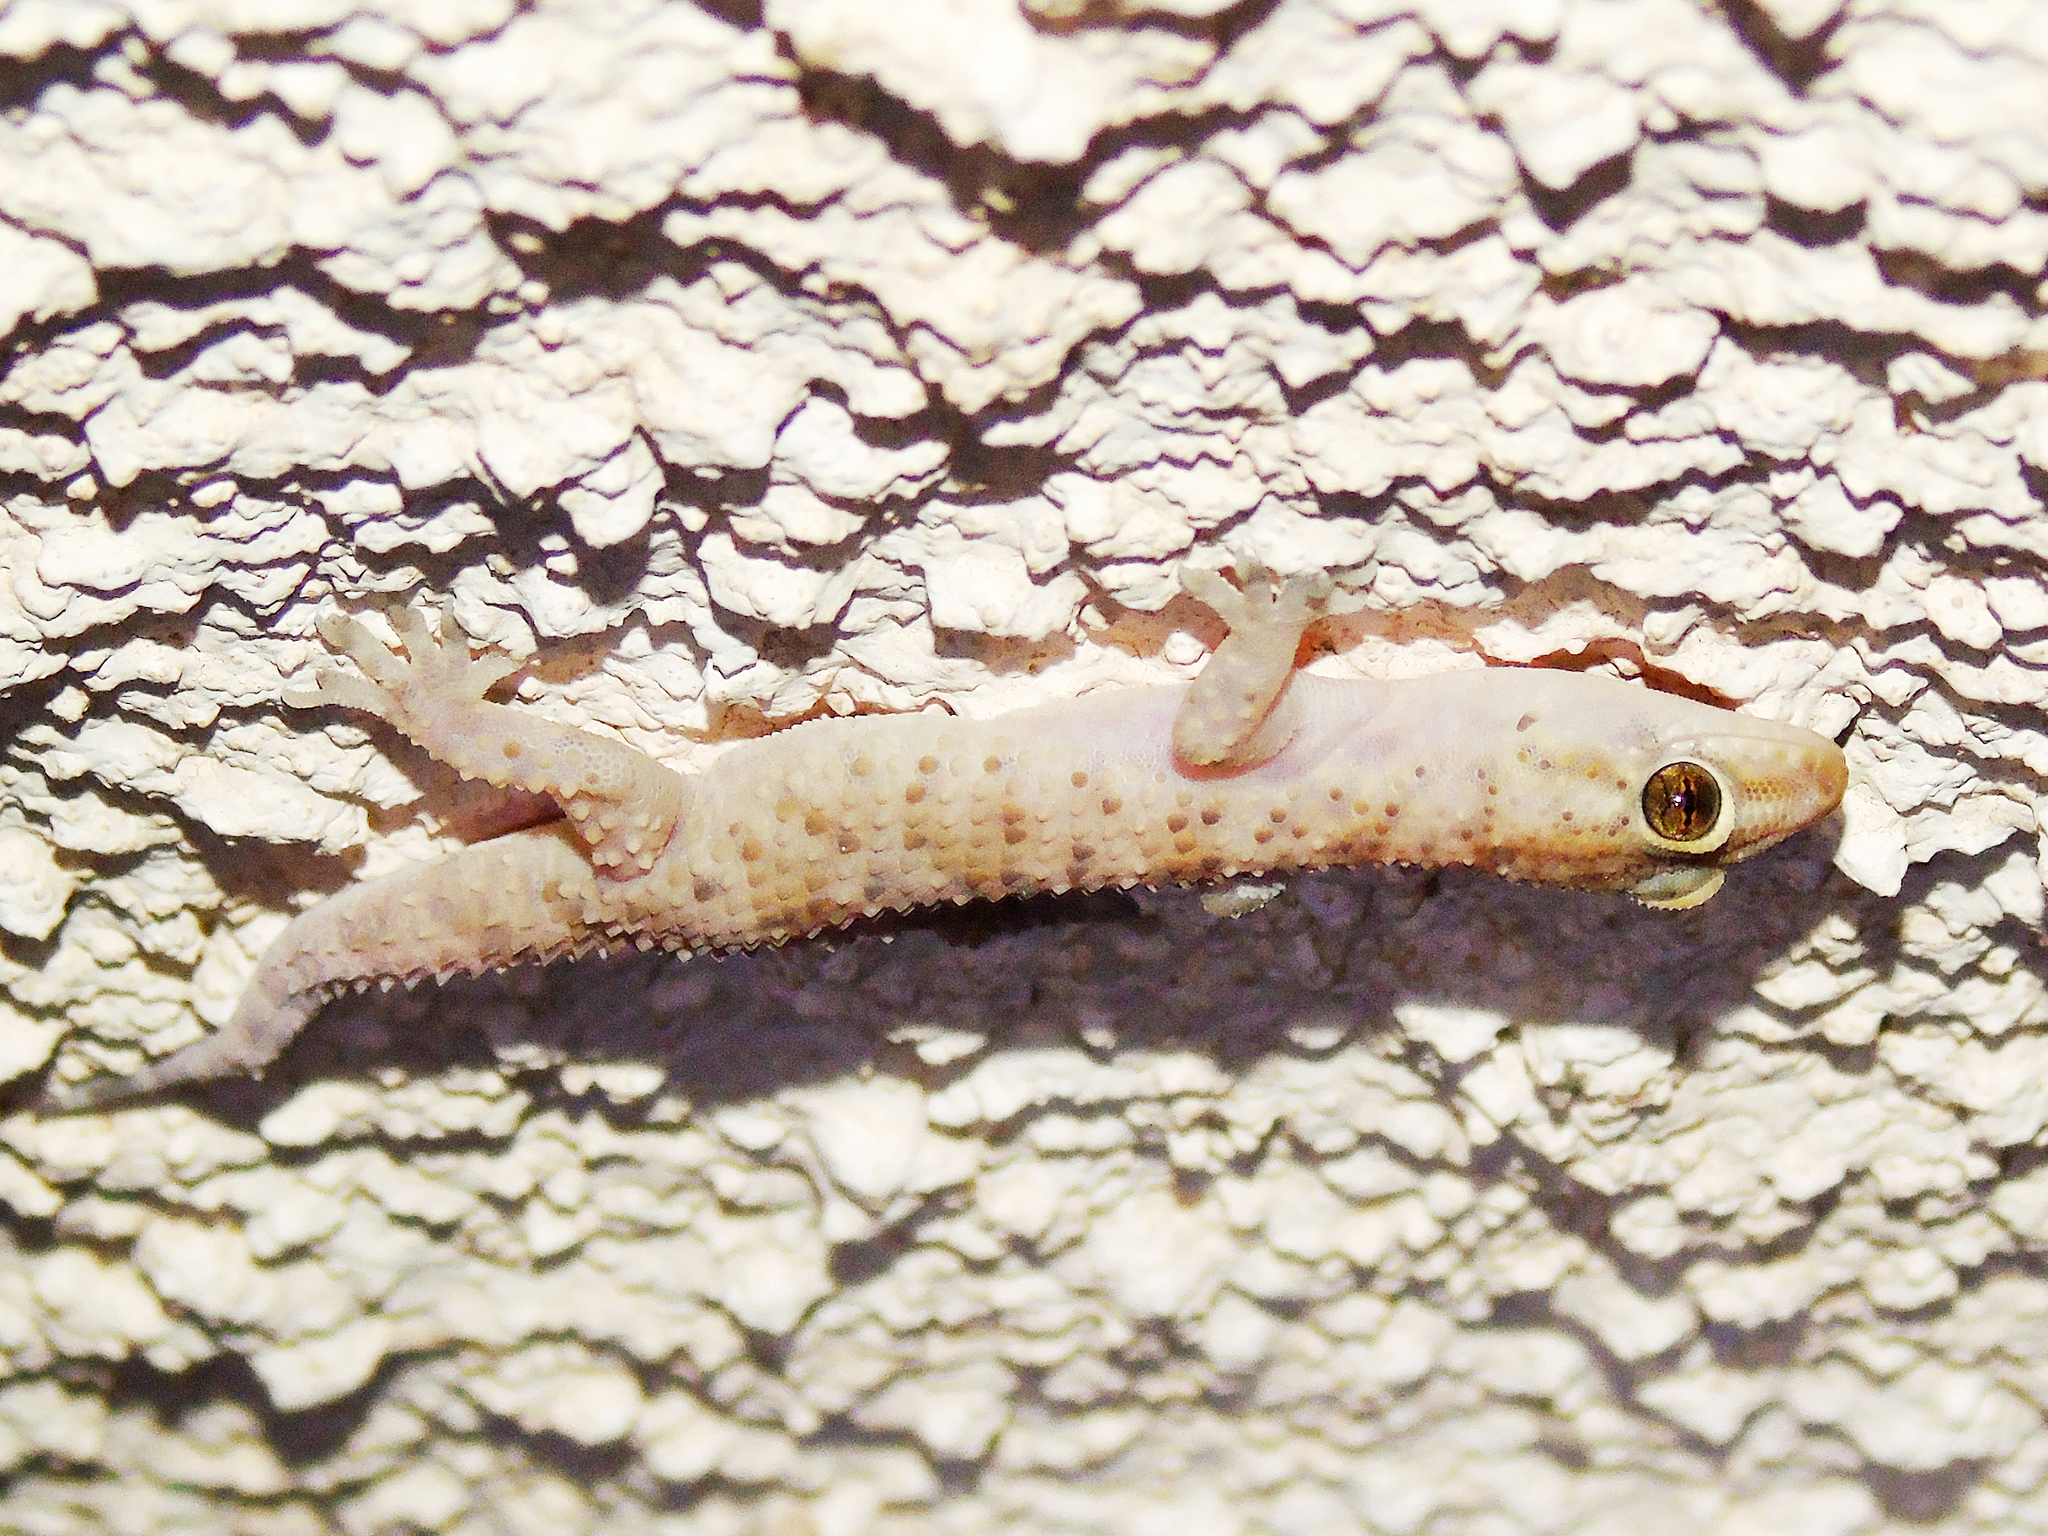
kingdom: Animalia
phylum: Chordata
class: Squamata
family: Gekkonidae
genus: Hemidactylus
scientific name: Hemidactylus turcicus
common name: Turkish gecko
